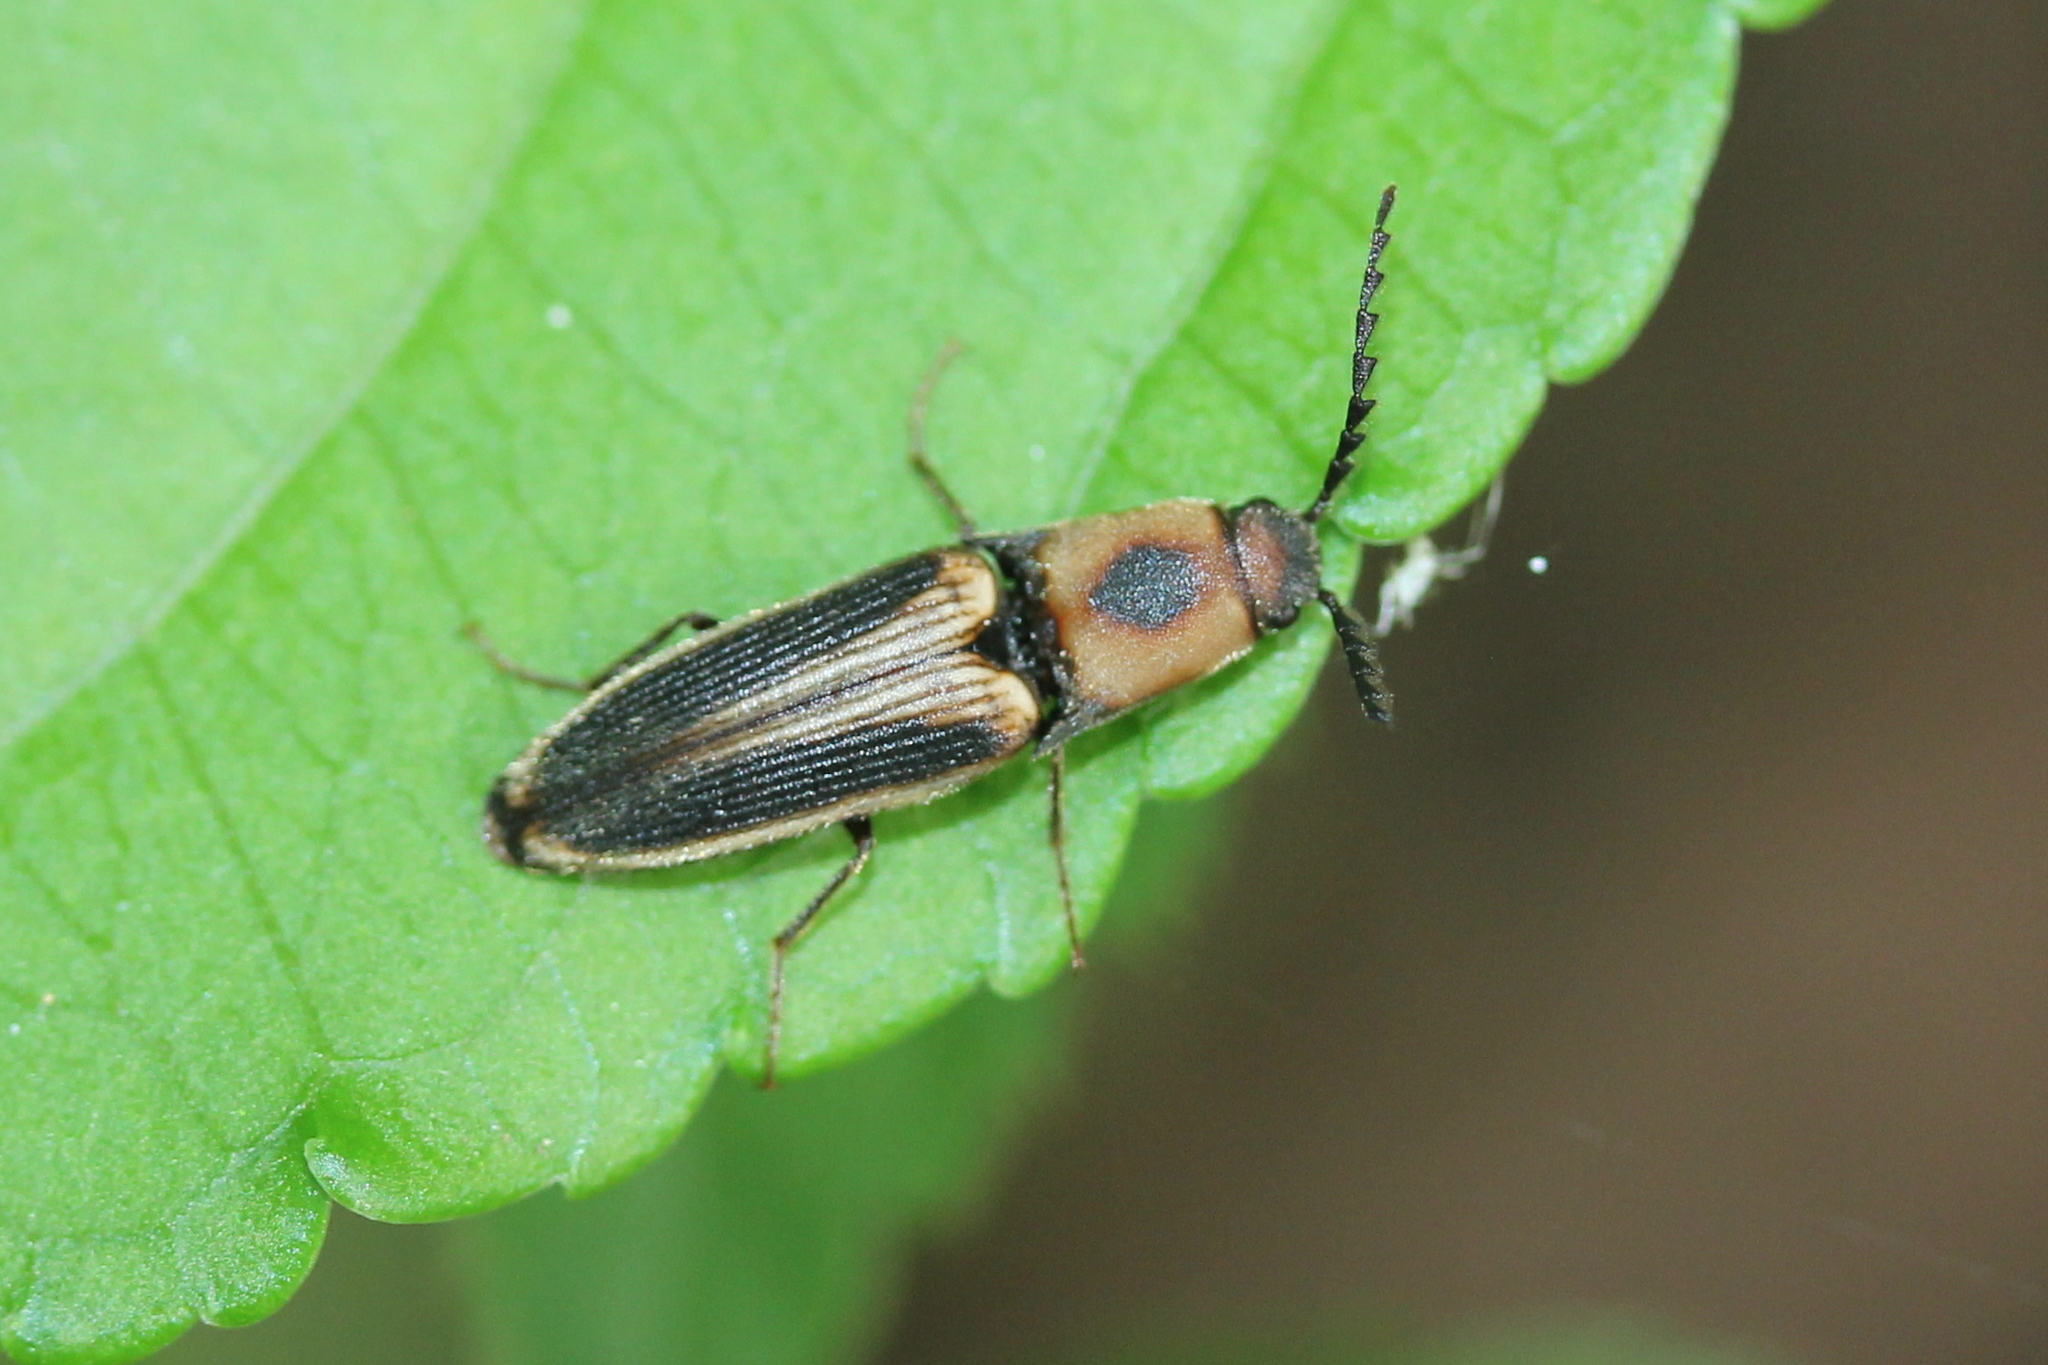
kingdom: Animalia
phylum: Arthropoda
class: Insecta
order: Coleoptera
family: Elateridae
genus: Megapenthes
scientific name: Megapenthes
